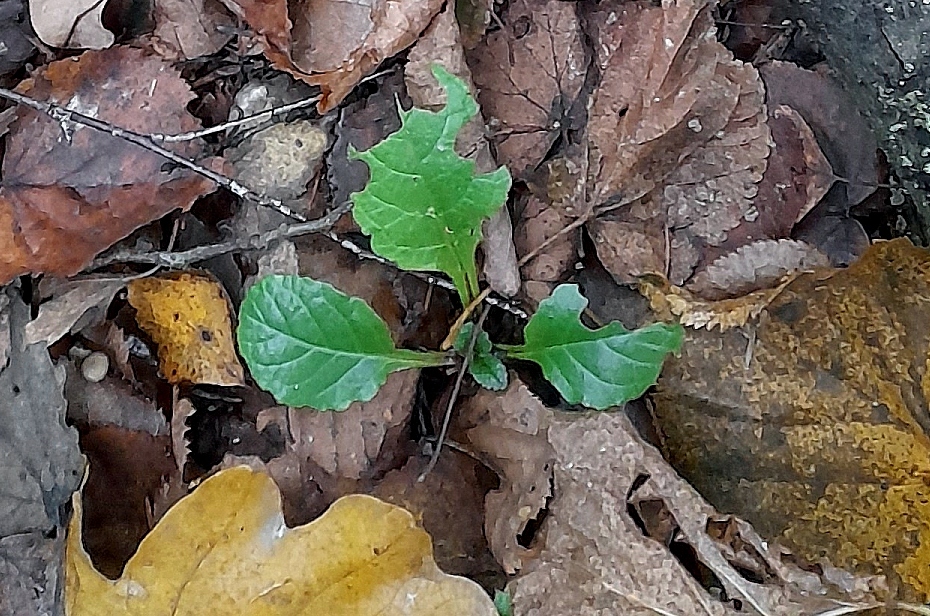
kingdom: Plantae
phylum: Tracheophyta
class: Magnoliopsida
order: Lamiales
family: Lamiaceae
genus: Ajuga
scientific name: Ajuga reptans
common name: Bugle
